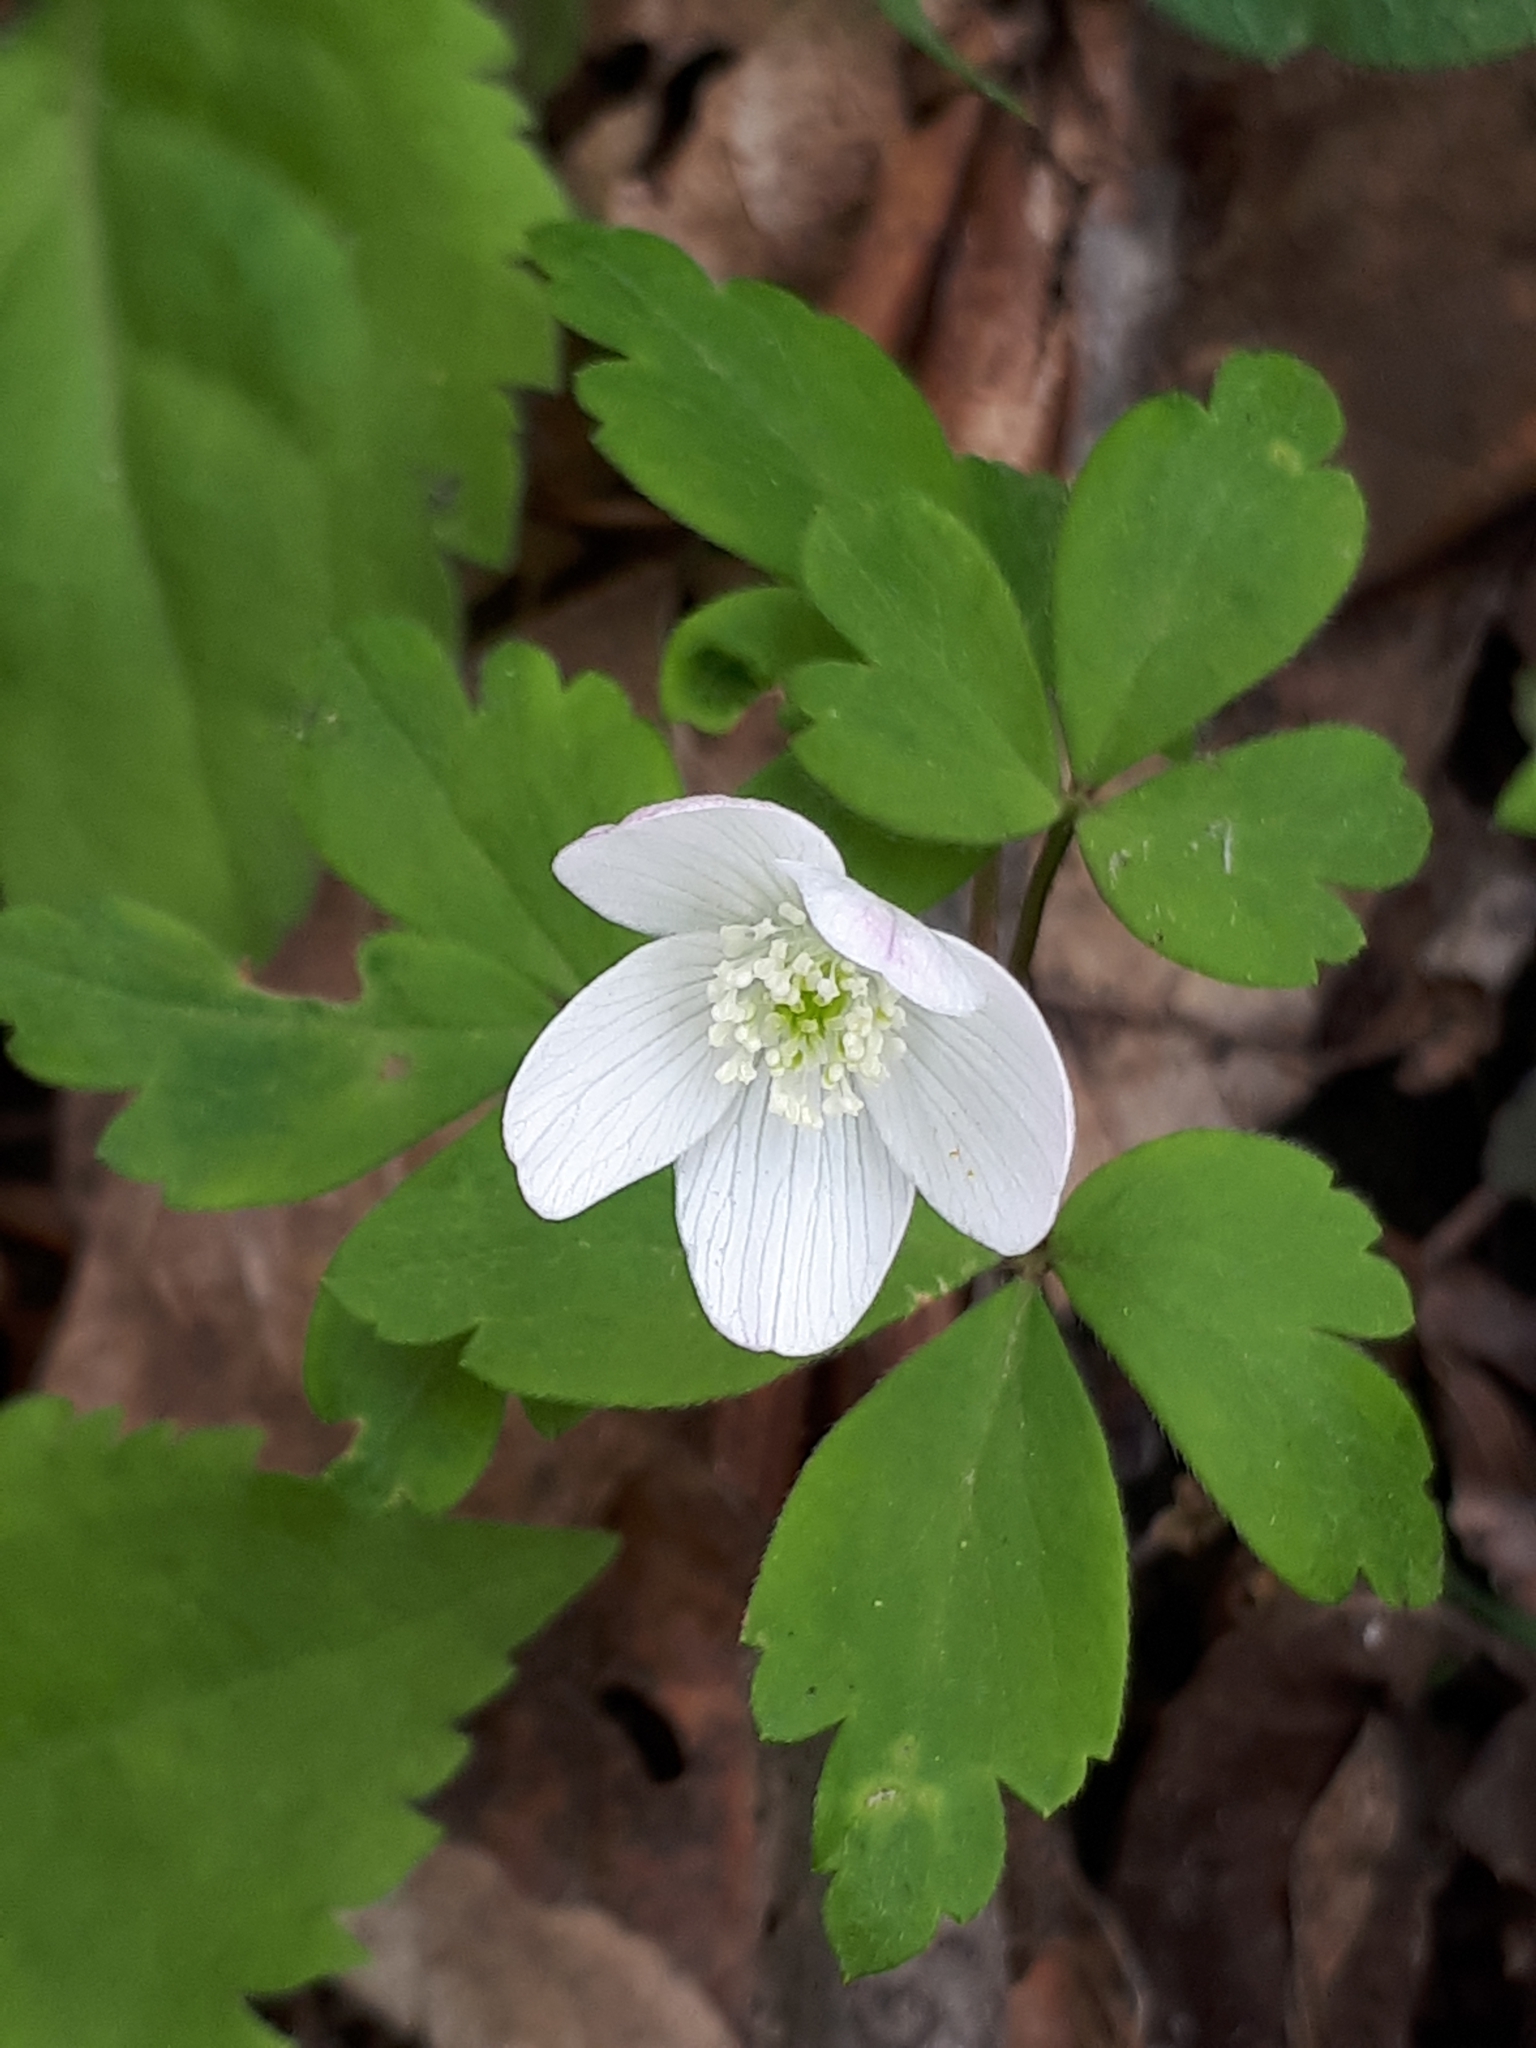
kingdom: Plantae
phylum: Tracheophyta
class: Magnoliopsida
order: Ranunculales
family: Ranunculaceae
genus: Anemone
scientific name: Anemone quinquefolia
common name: Wood anemone
